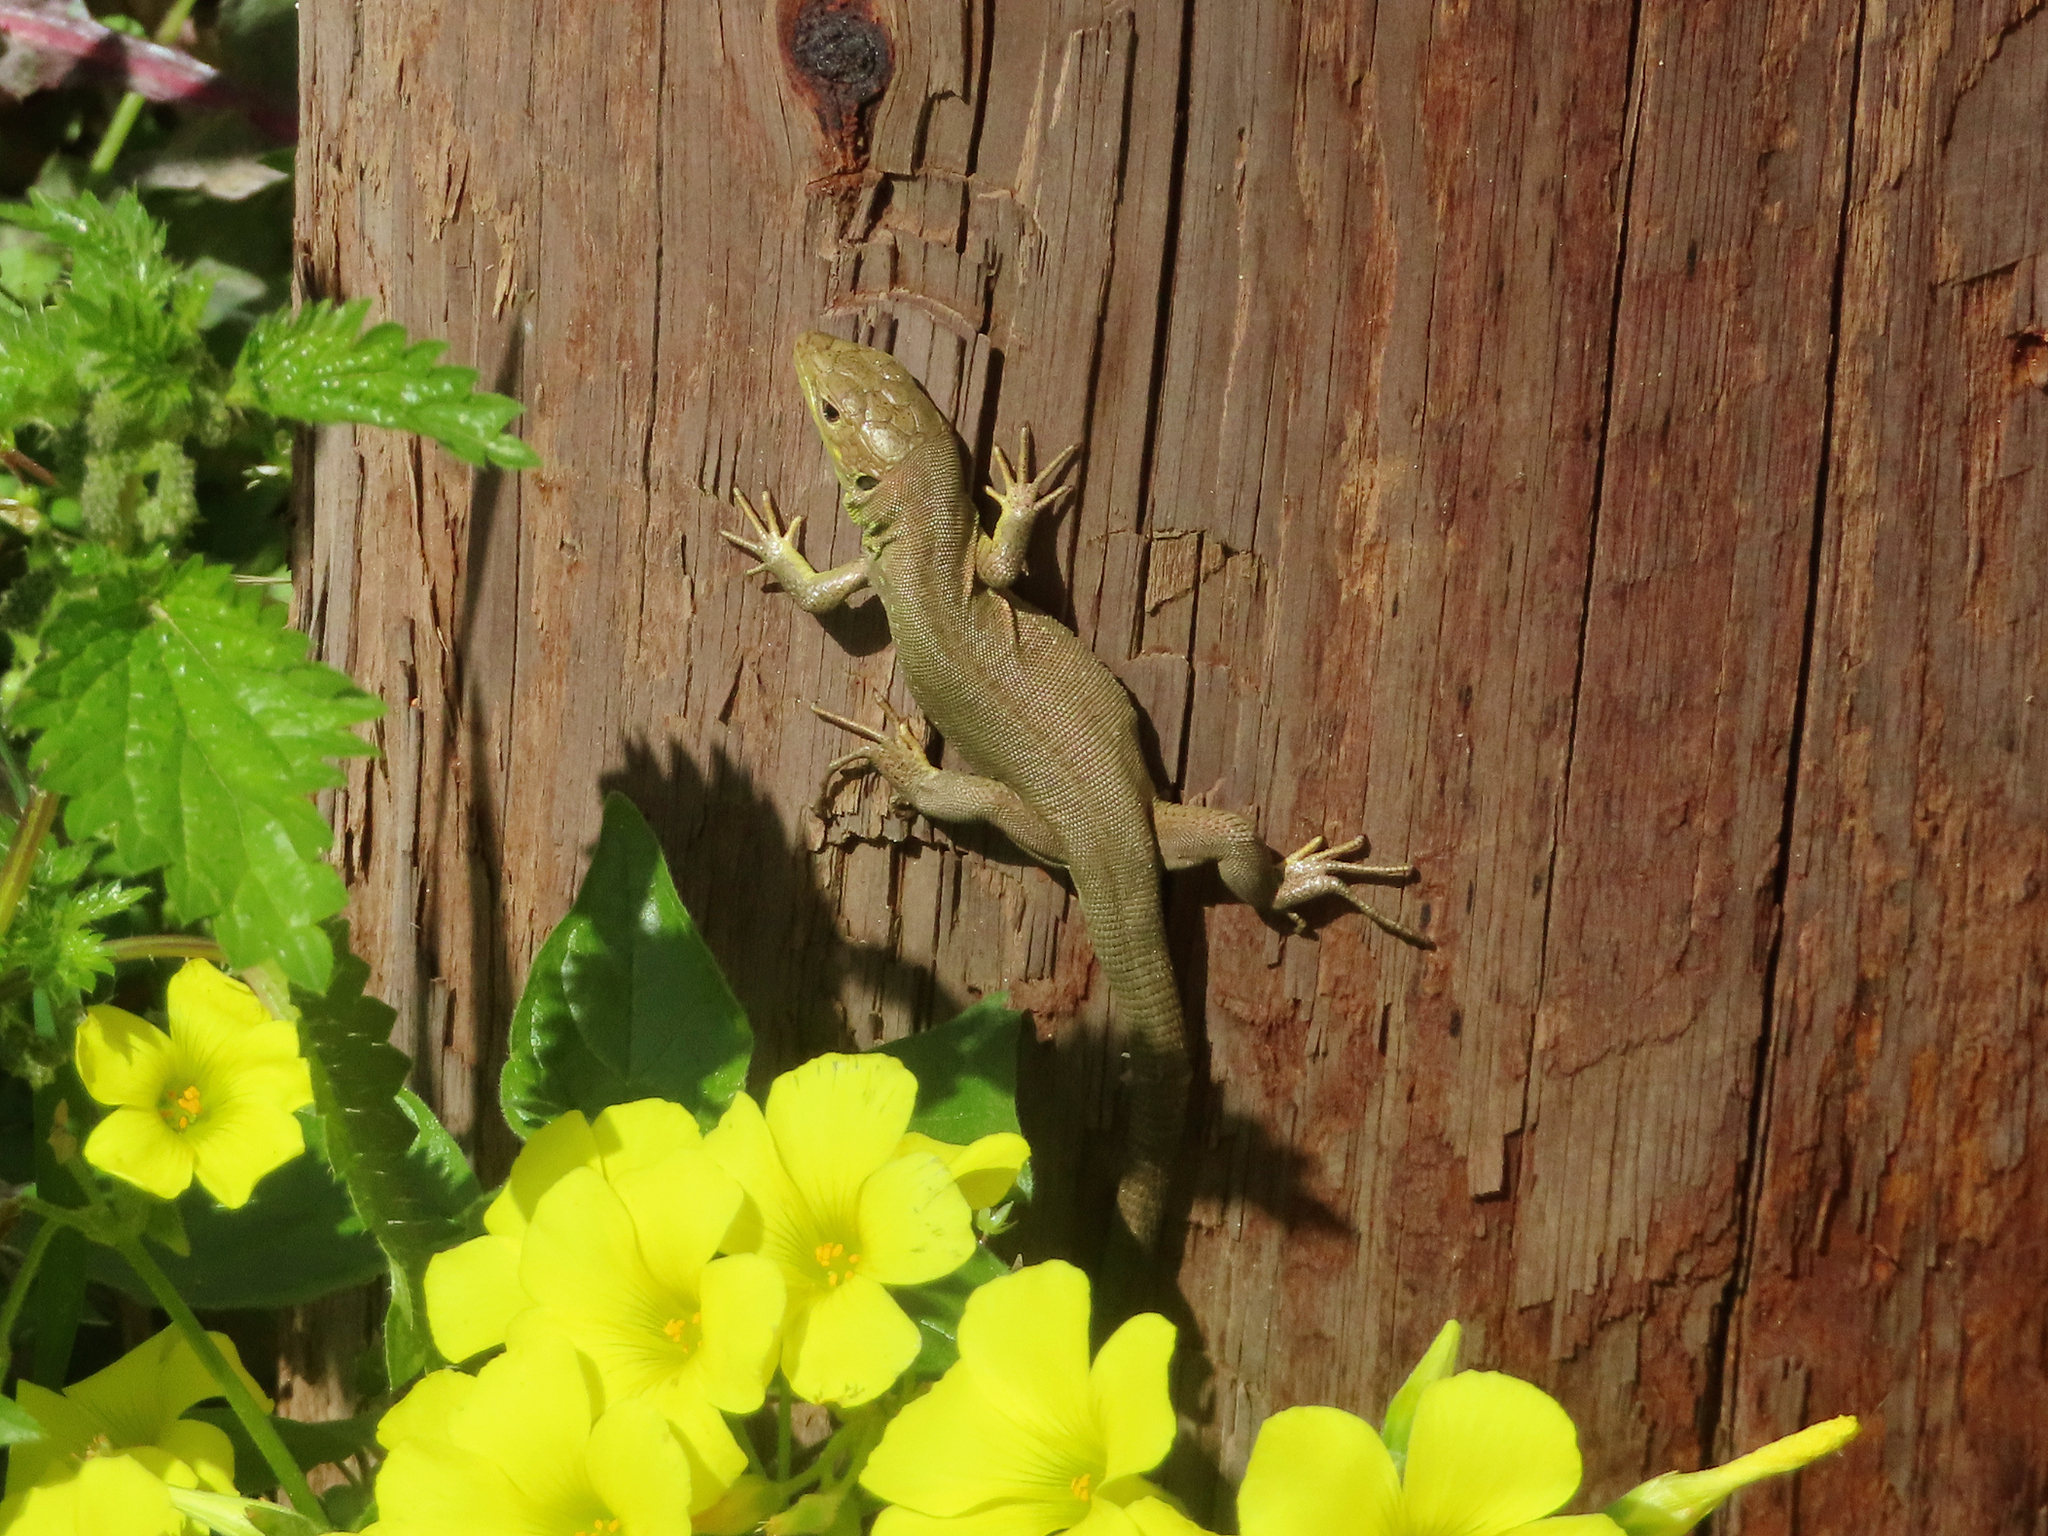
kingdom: Animalia
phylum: Chordata
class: Squamata
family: Lacertidae
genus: Lacerta
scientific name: Lacerta trilineata
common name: Balkan green lizard
